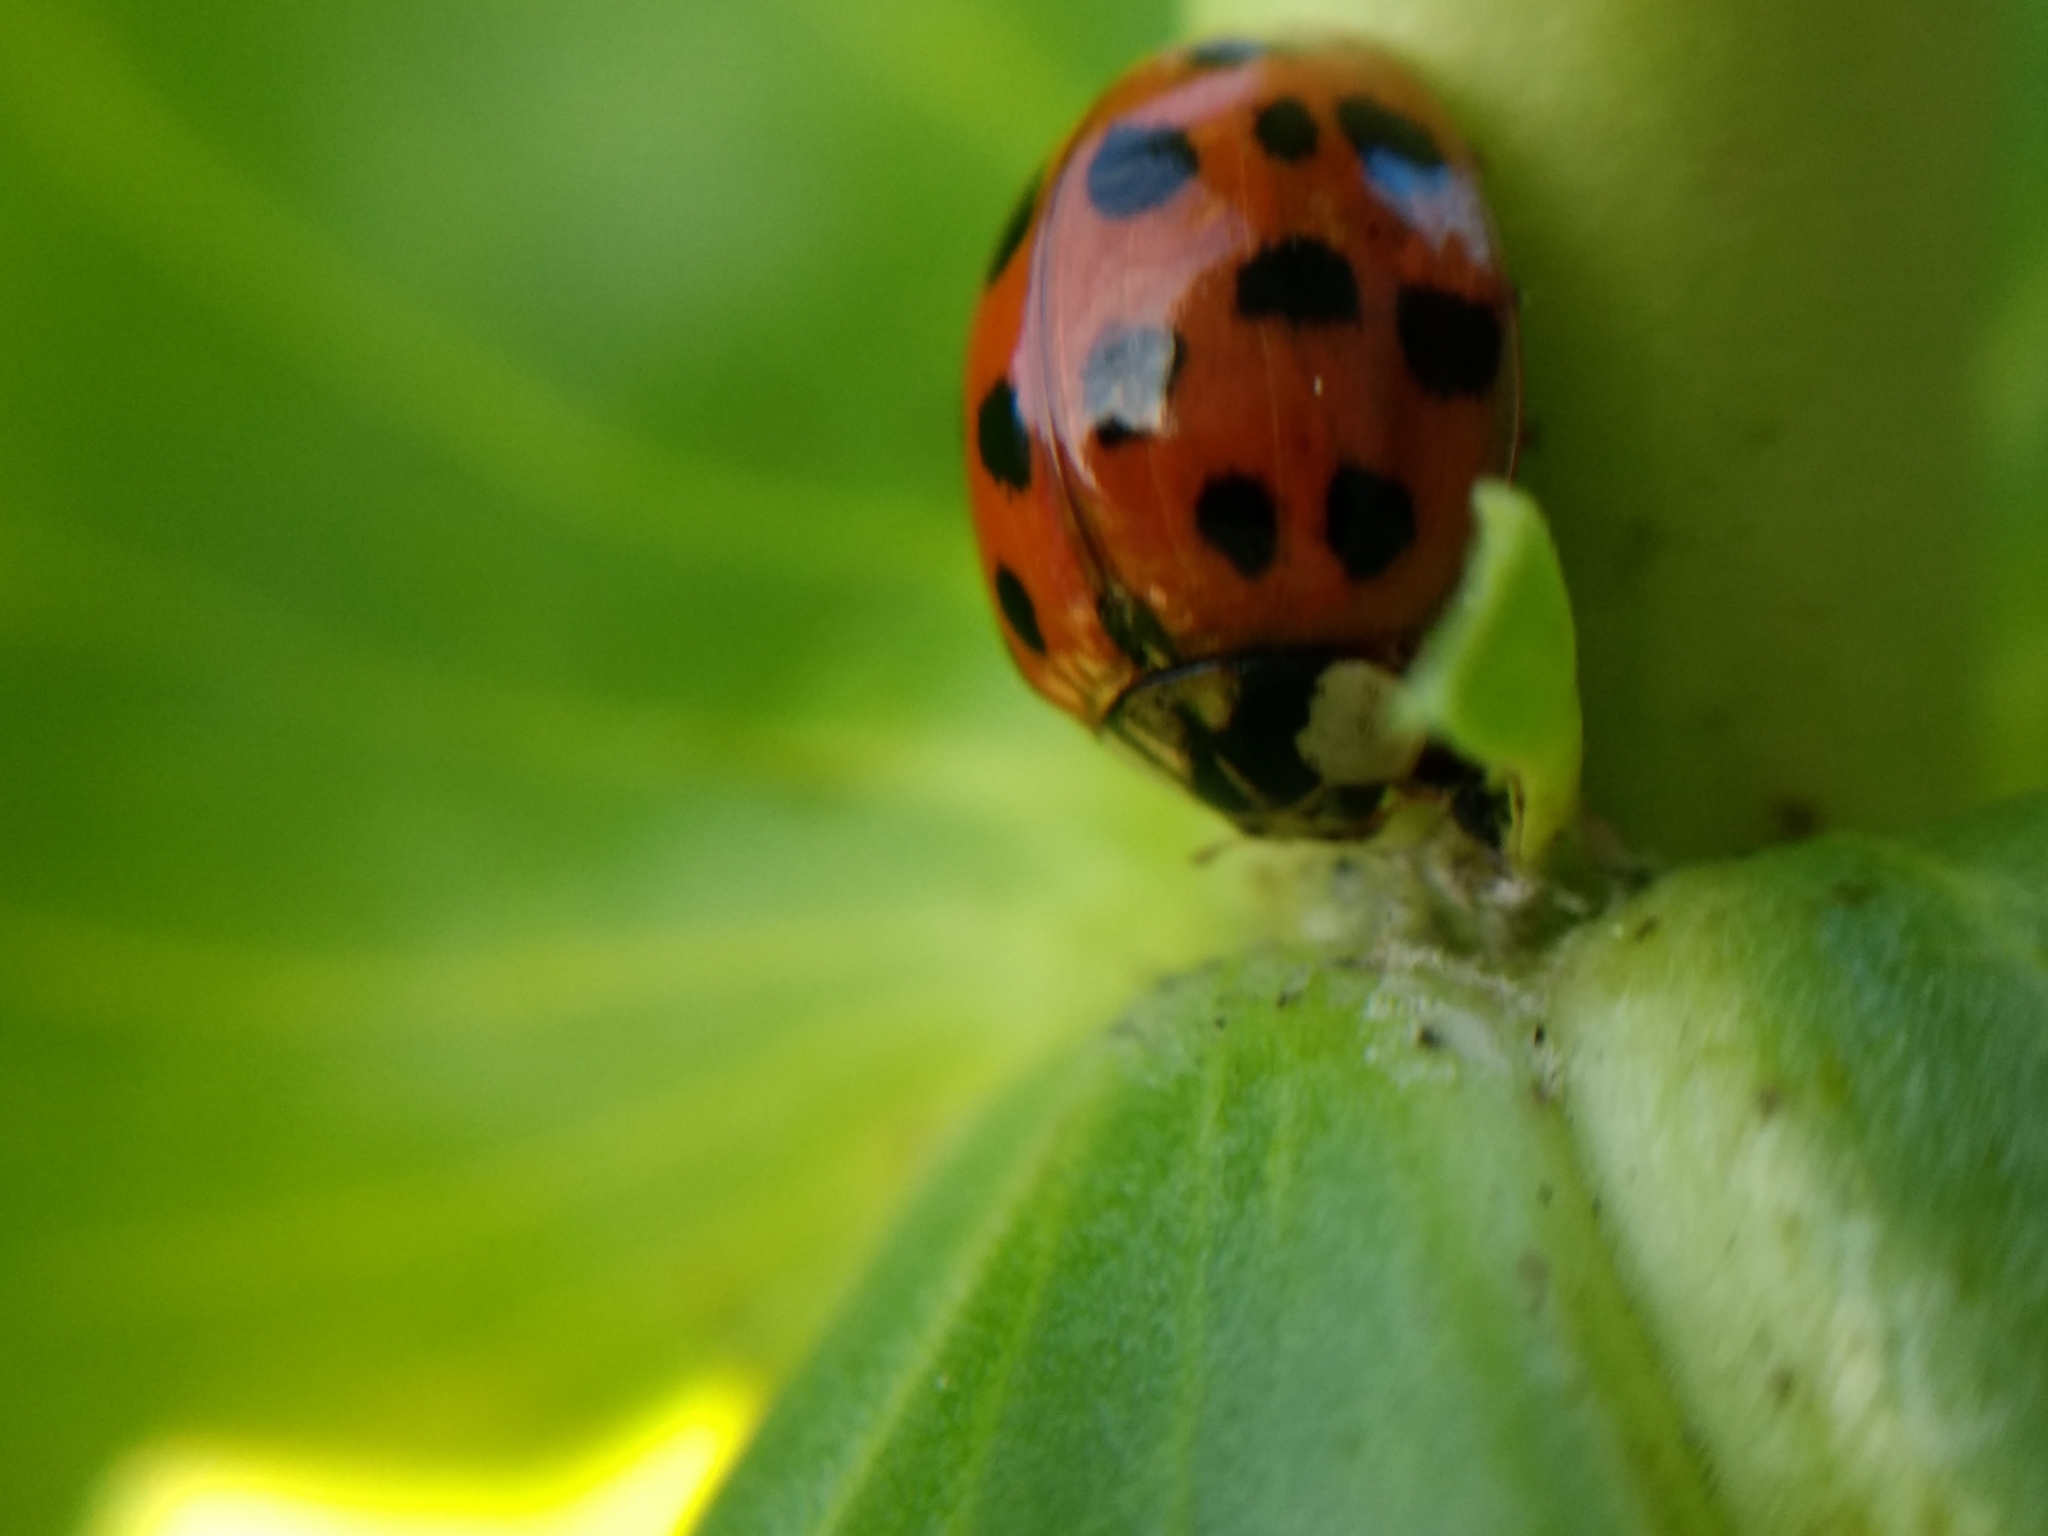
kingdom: Animalia
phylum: Arthropoda
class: Insecta
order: Coleoptera
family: Coccinellidae
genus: Harmonia
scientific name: Harmonia axyridis
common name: Harlequin ladybird
